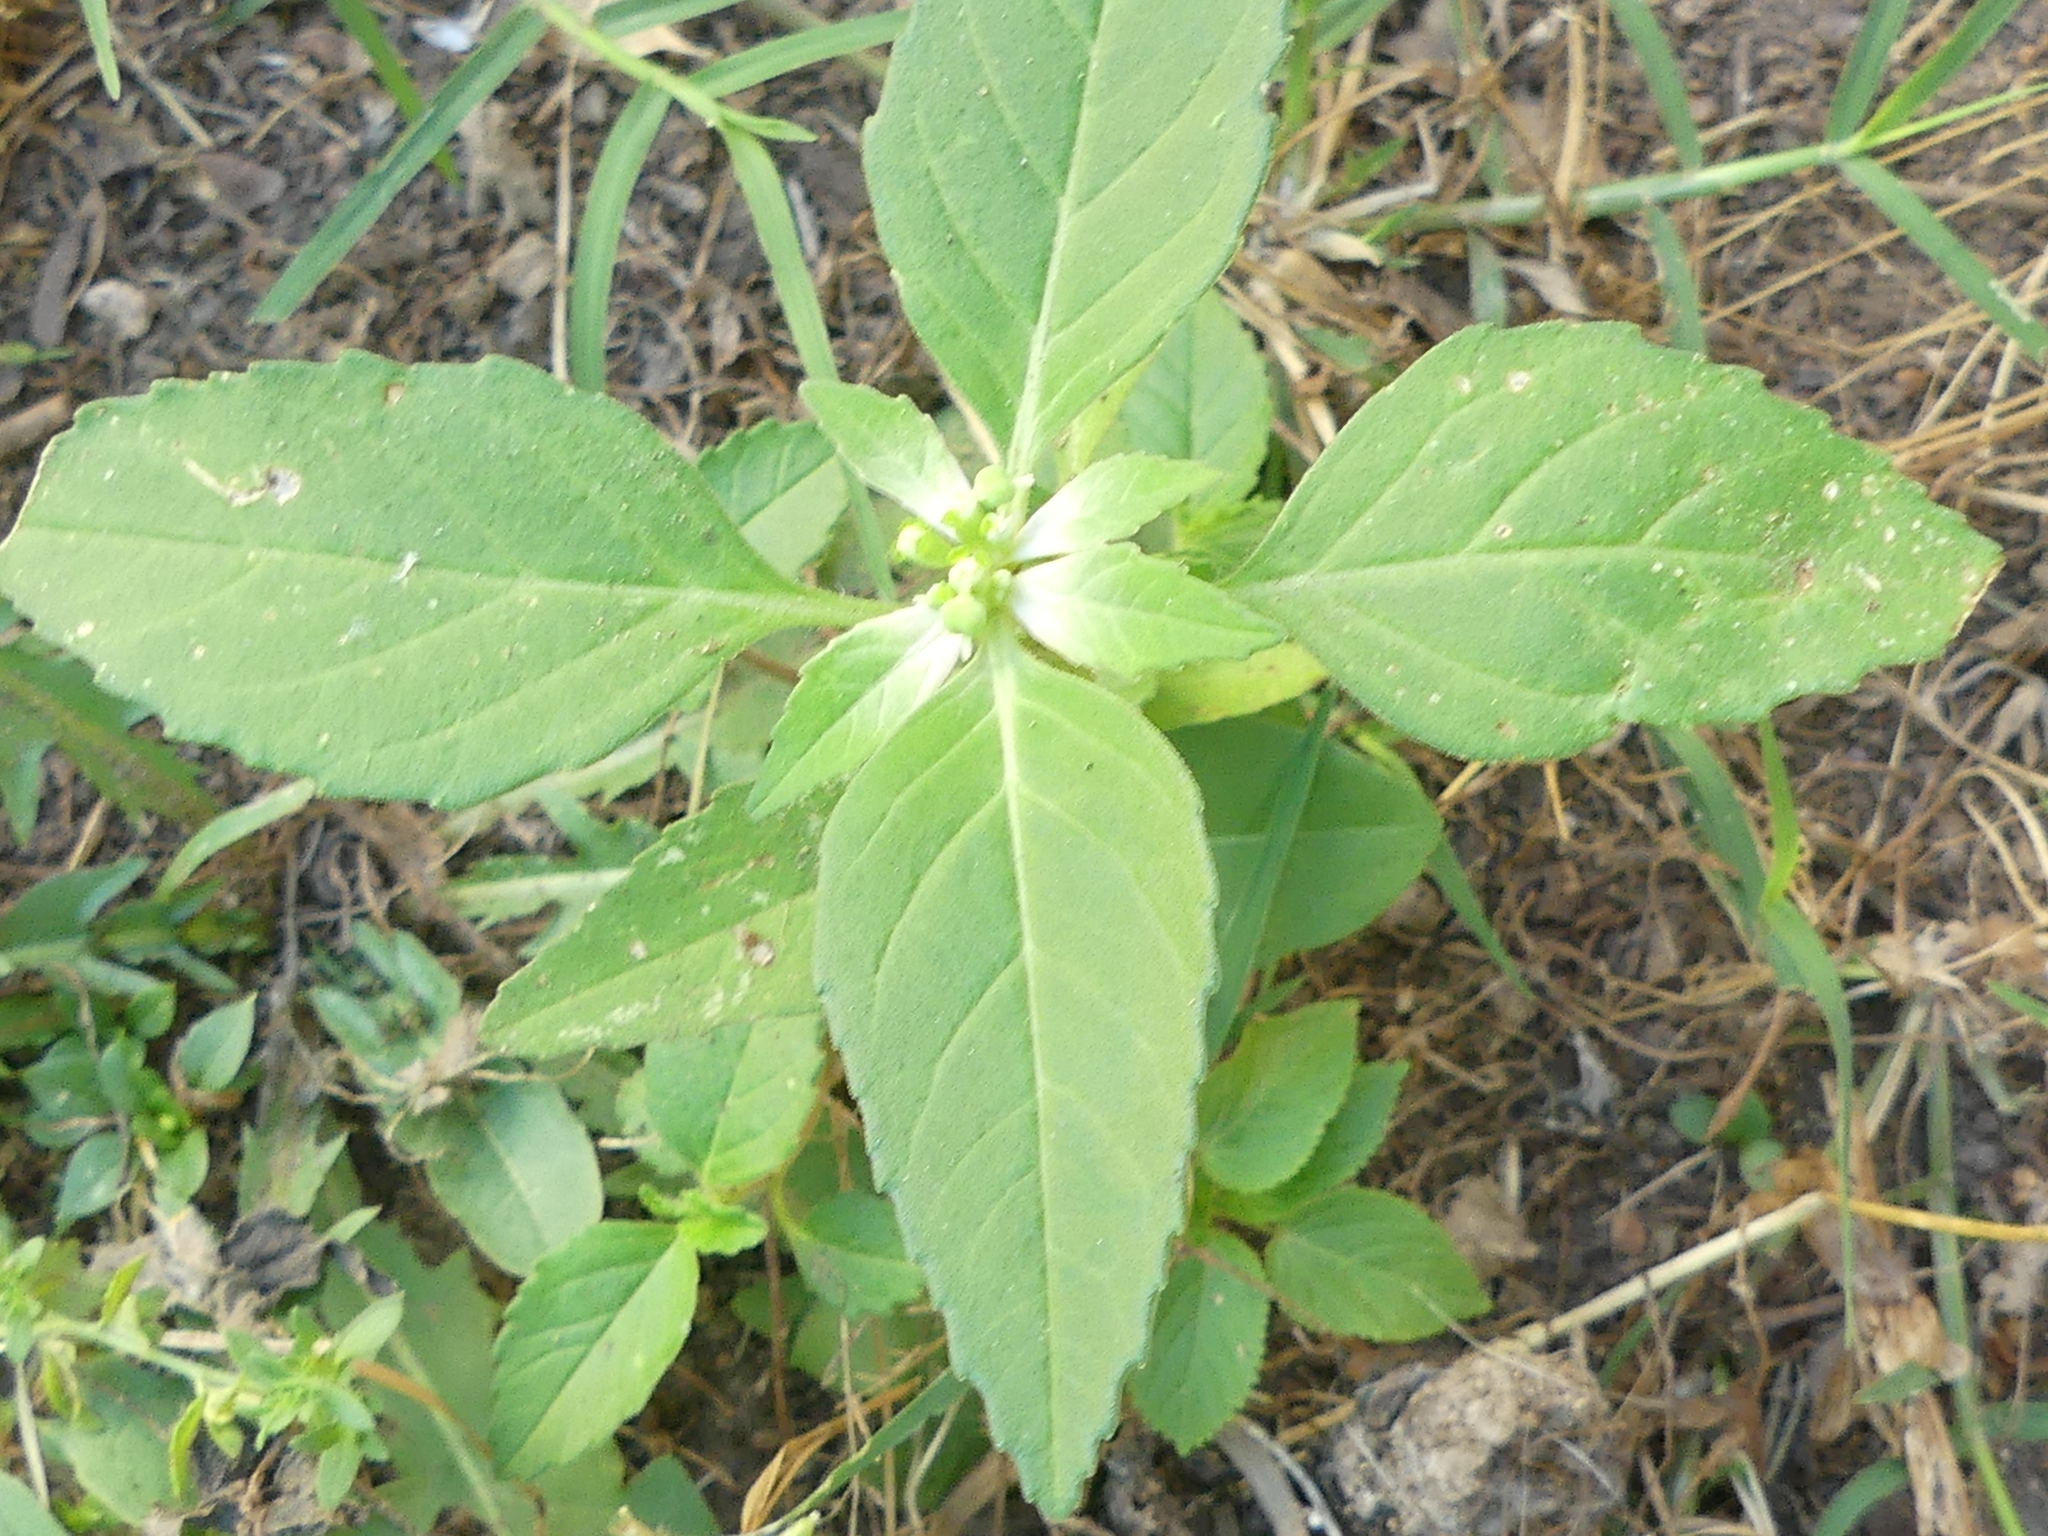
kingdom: Plantae
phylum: Tracheophyta
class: Magnoliopsida
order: Malpighiales
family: Euphorbiaceae
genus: Euphorbia
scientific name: Euphorbia dentata
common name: Dentate spurge
